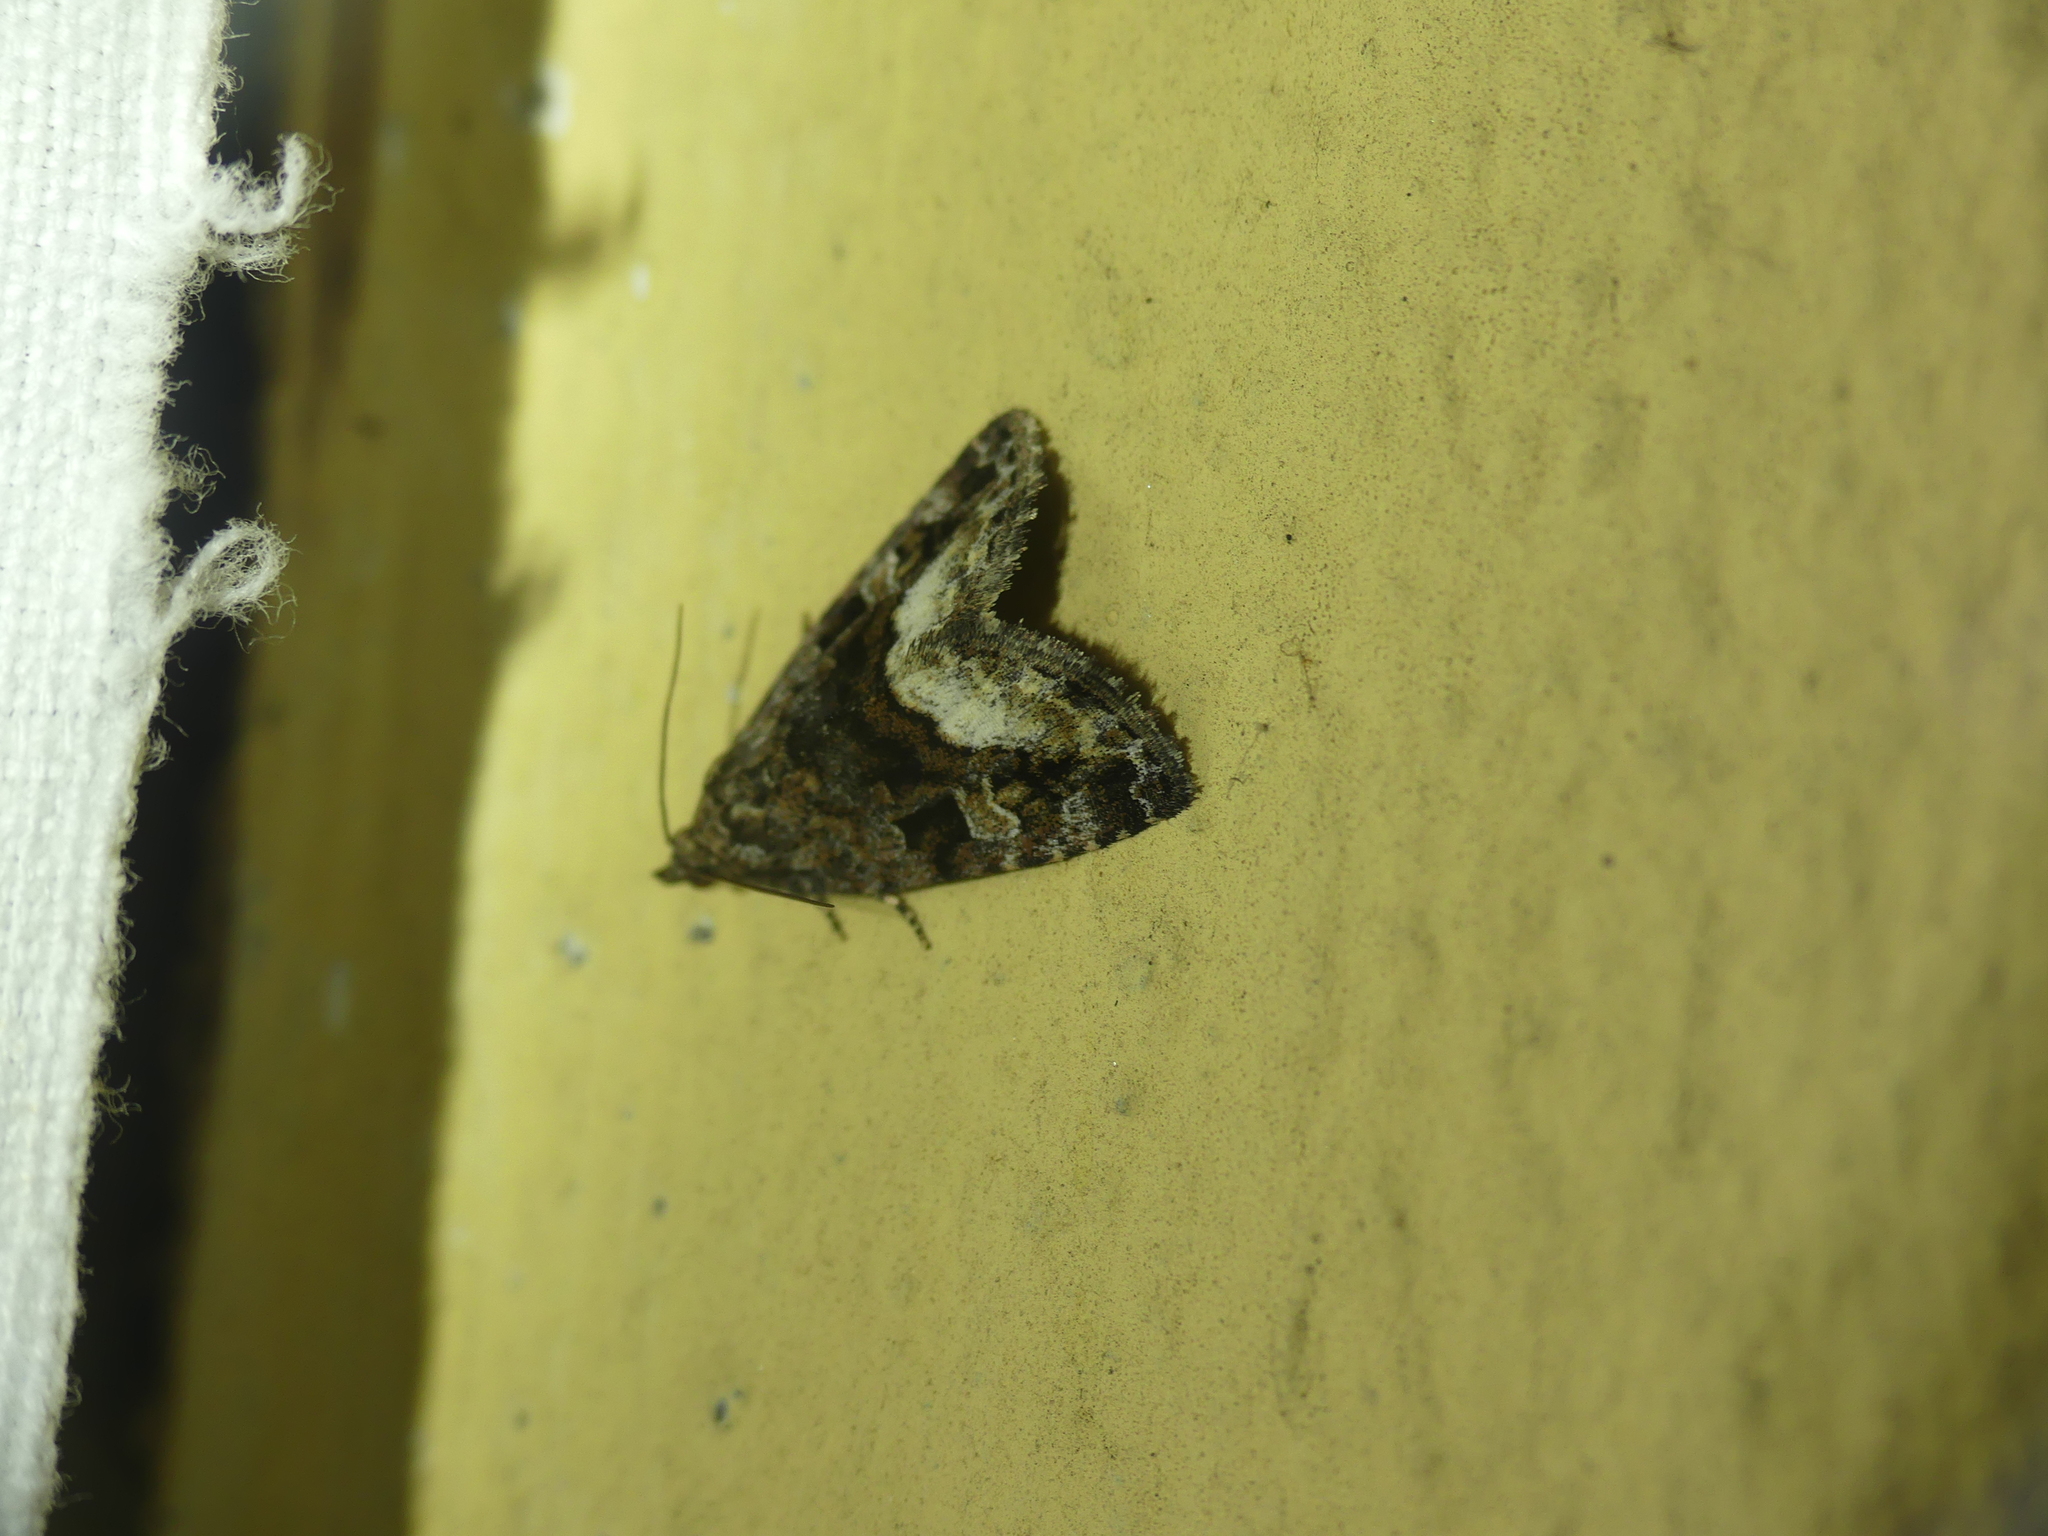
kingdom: Animalia
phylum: Arthropoda
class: Insecta
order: Lepidoptera
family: Noctuidae
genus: Deltote
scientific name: Deltote pygarga
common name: Marbled white spot
